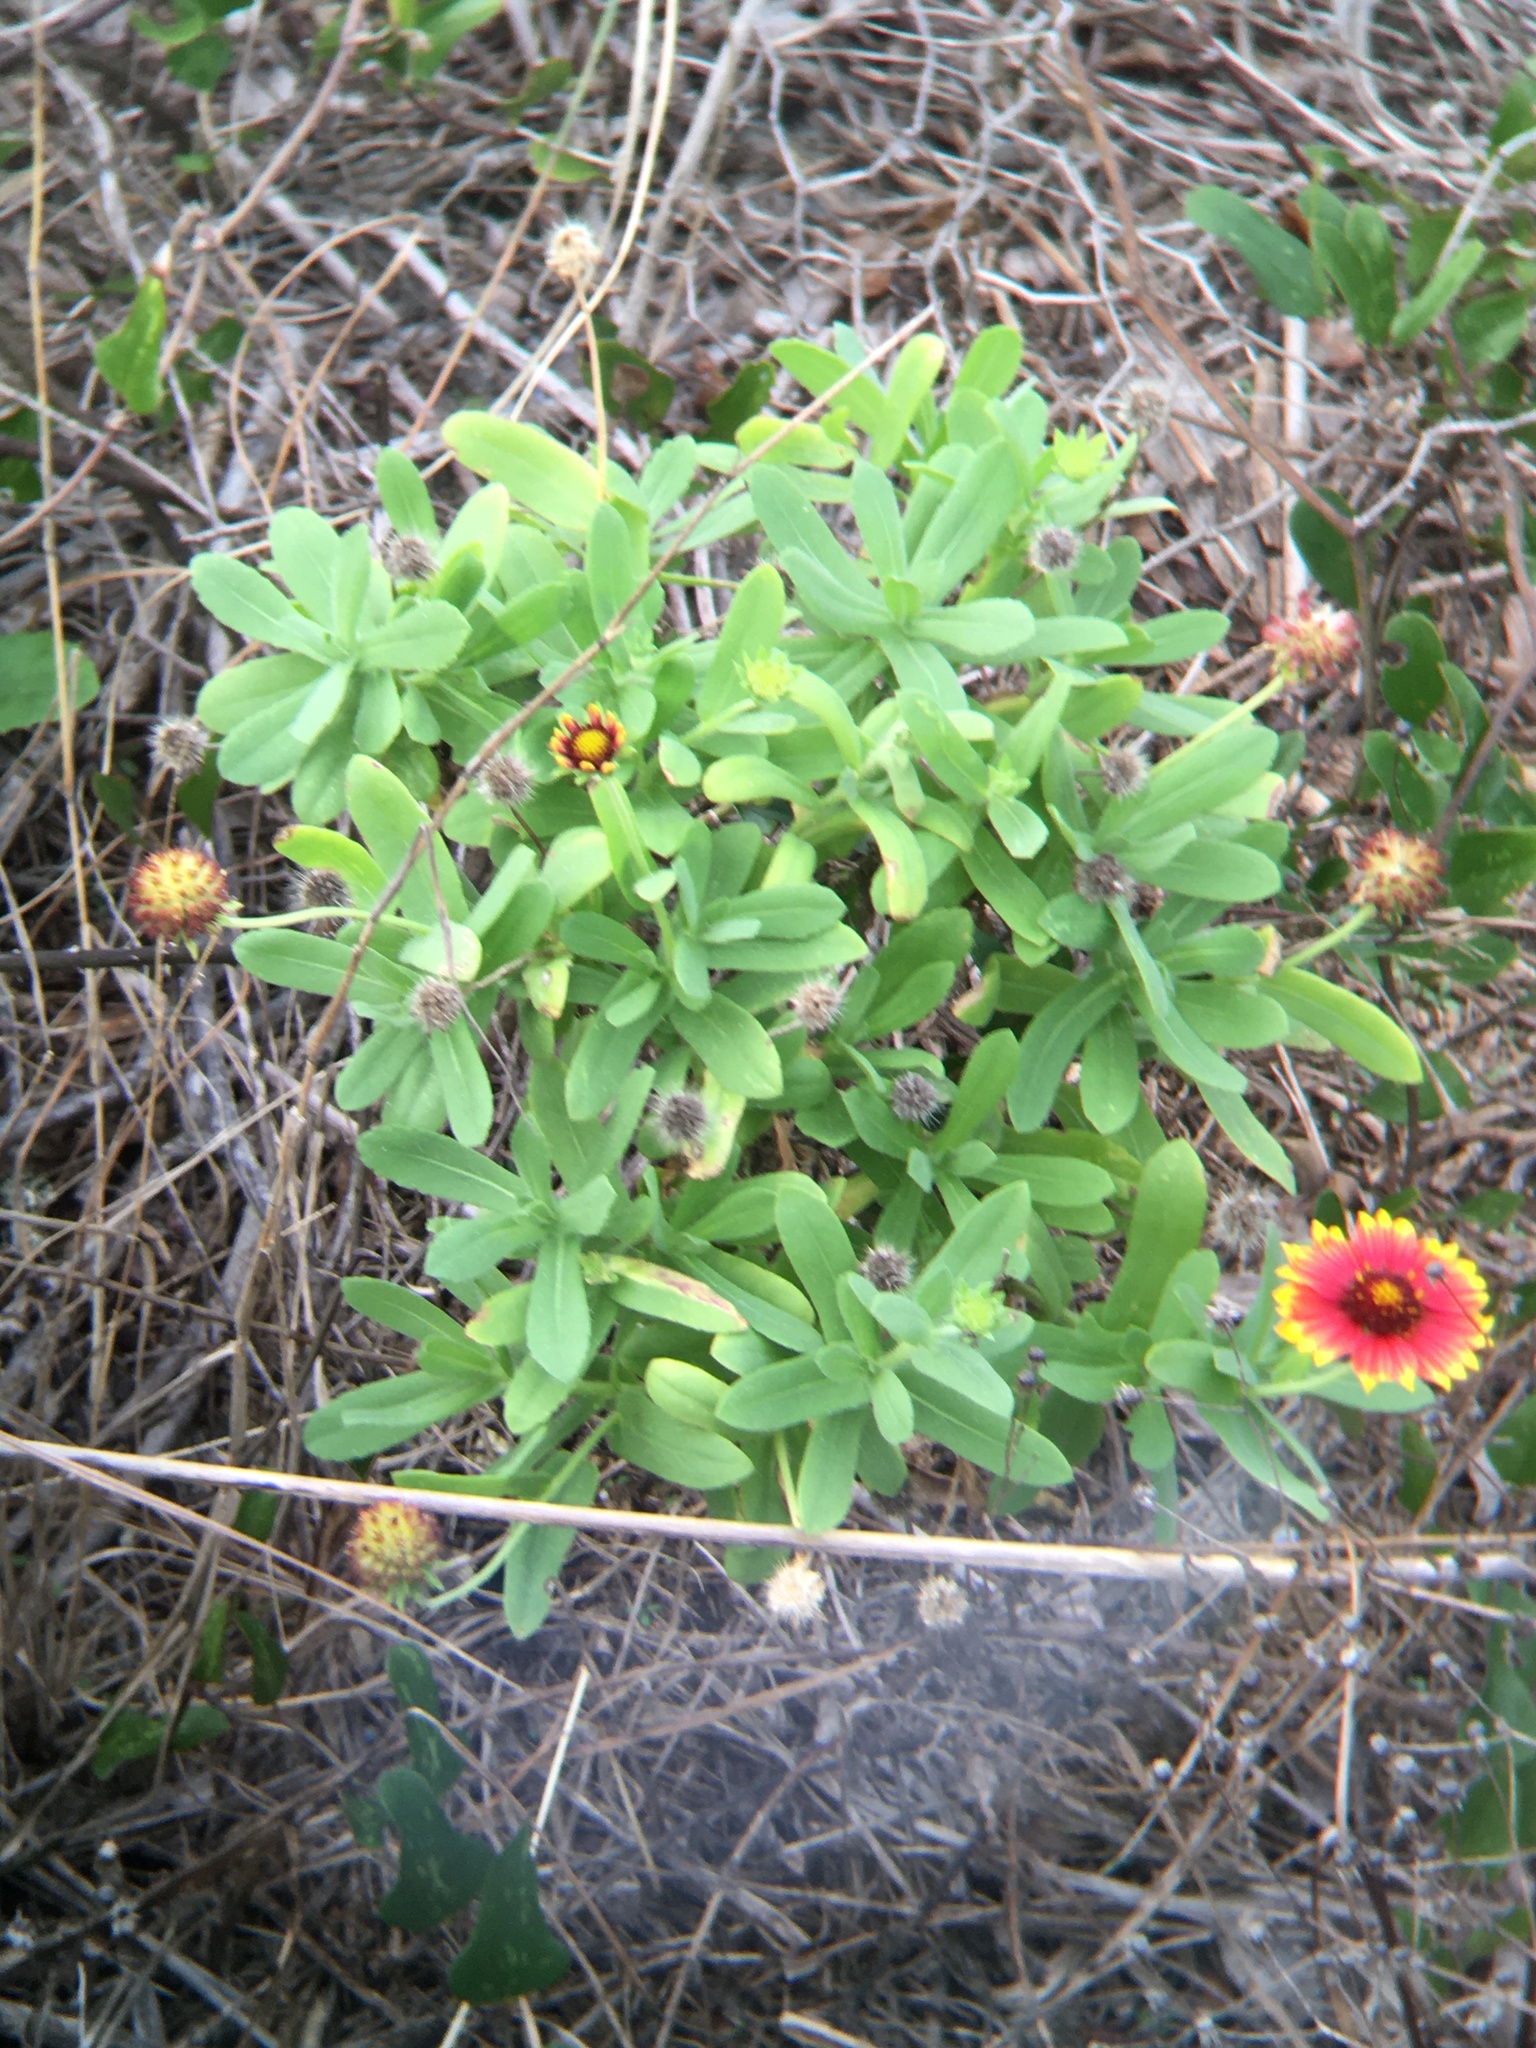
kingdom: Plantae
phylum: Tracheophyta
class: Magnoliopsida
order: Asterales
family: Asteraceae
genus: Gaillardia
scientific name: Gaillardia pulchella
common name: Firewheel
